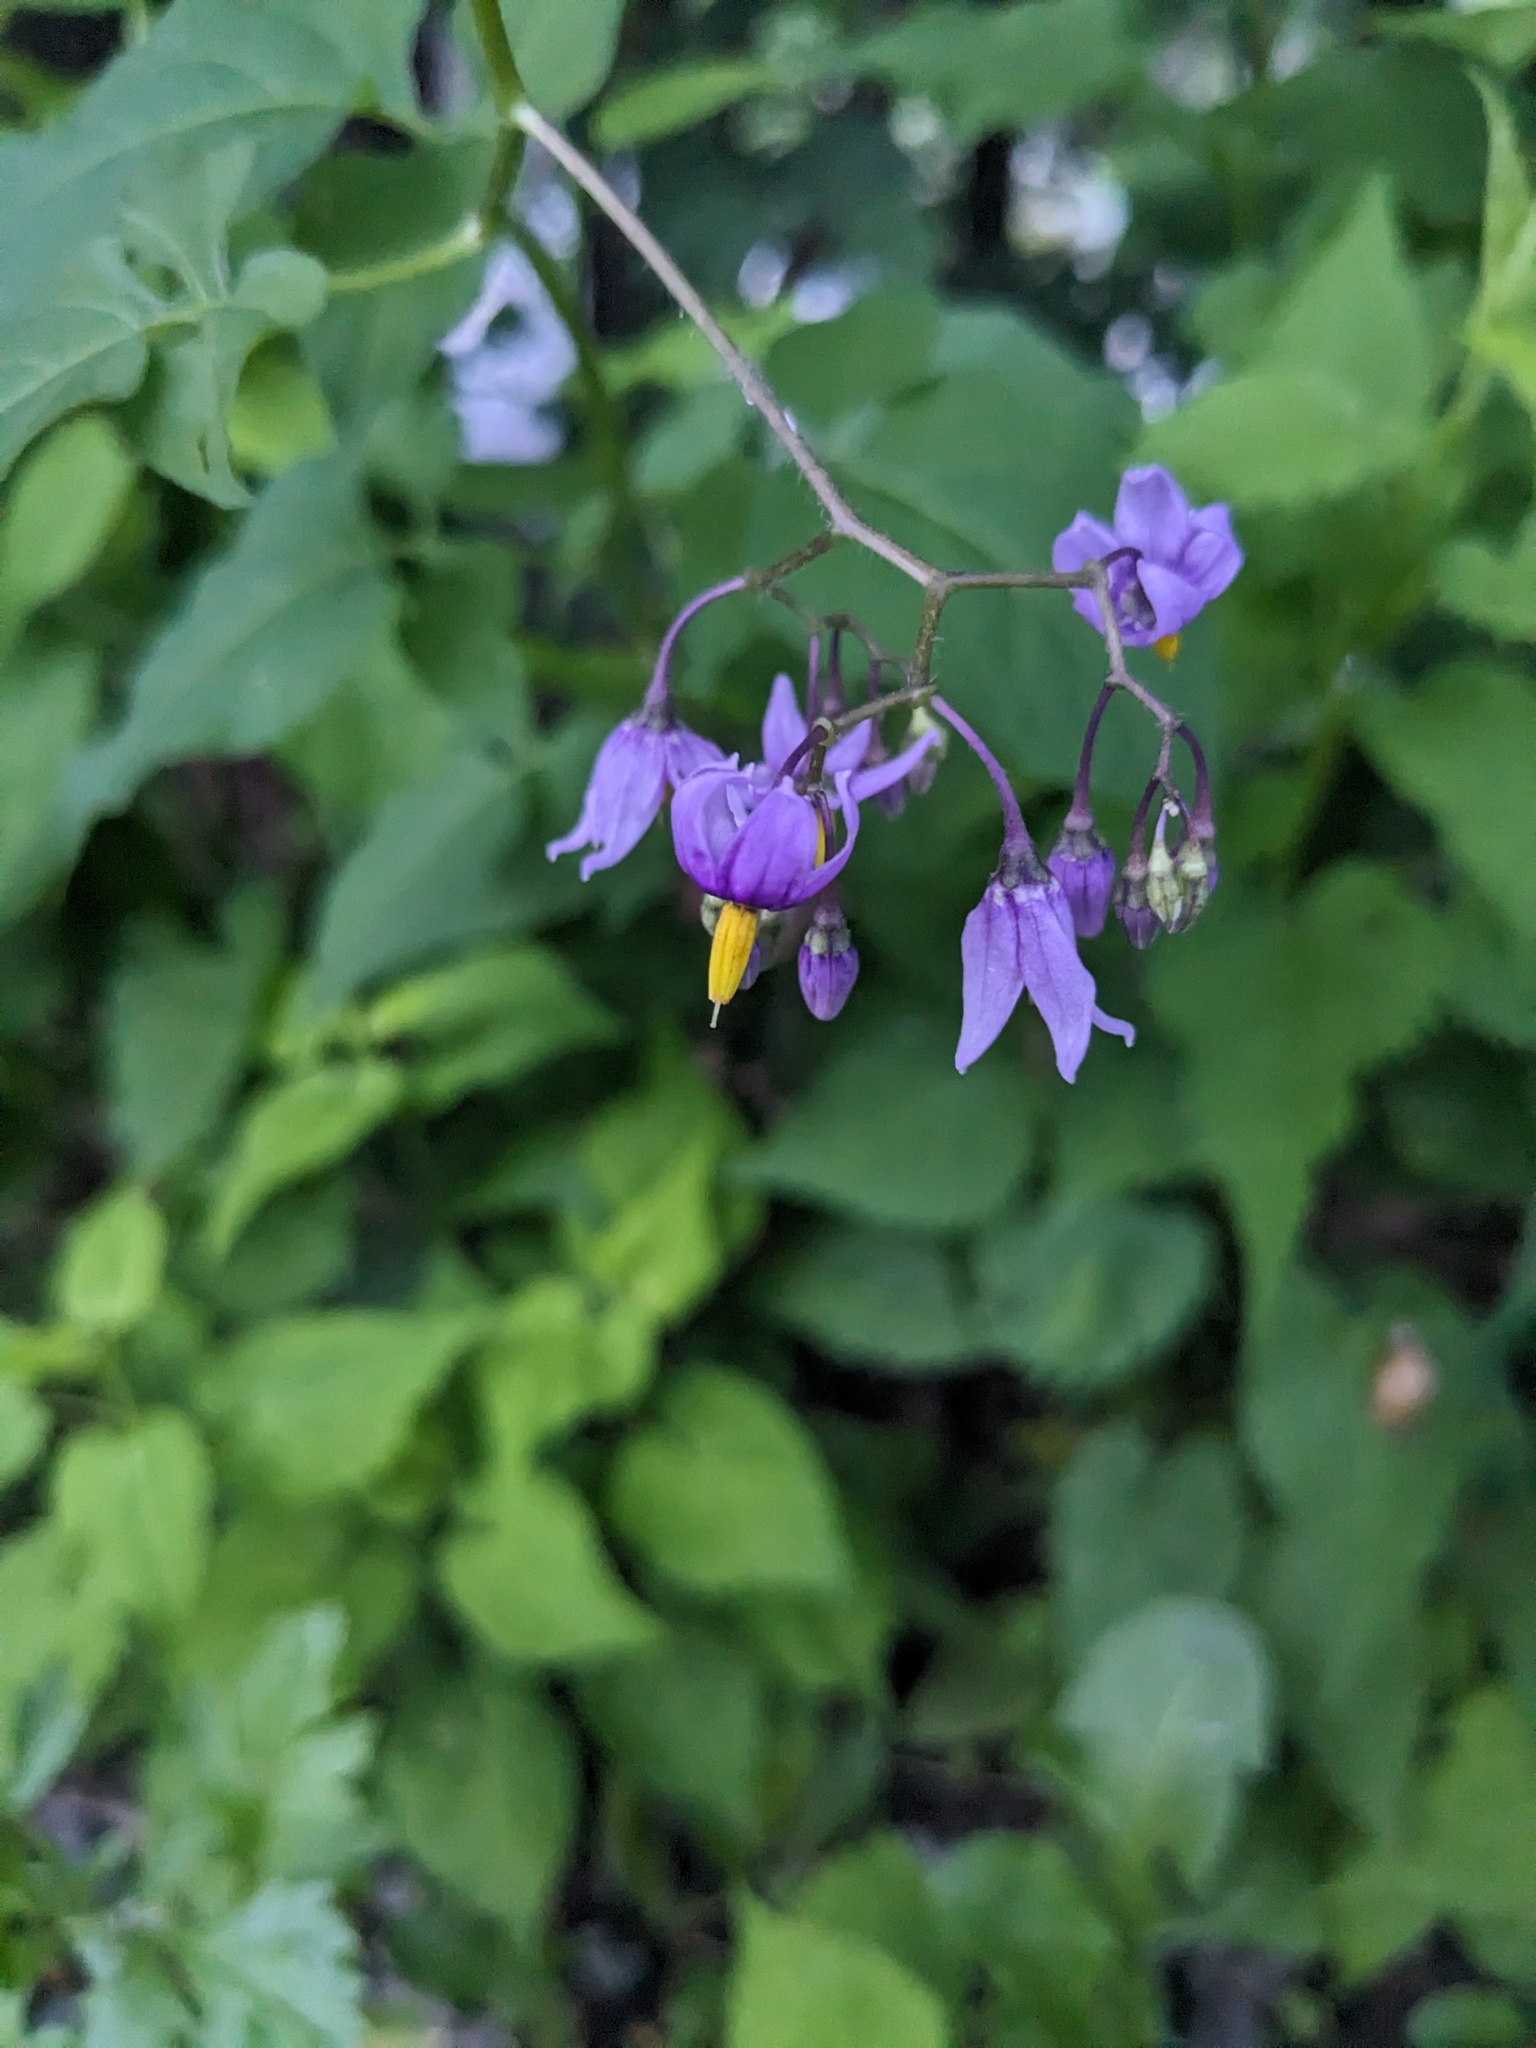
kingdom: Plantae
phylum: Tracheophyta
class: Magnoliopsida
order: Solanales
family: Solanaceae
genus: Solanum
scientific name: Solanum dulcamara
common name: Climbing nightshade
